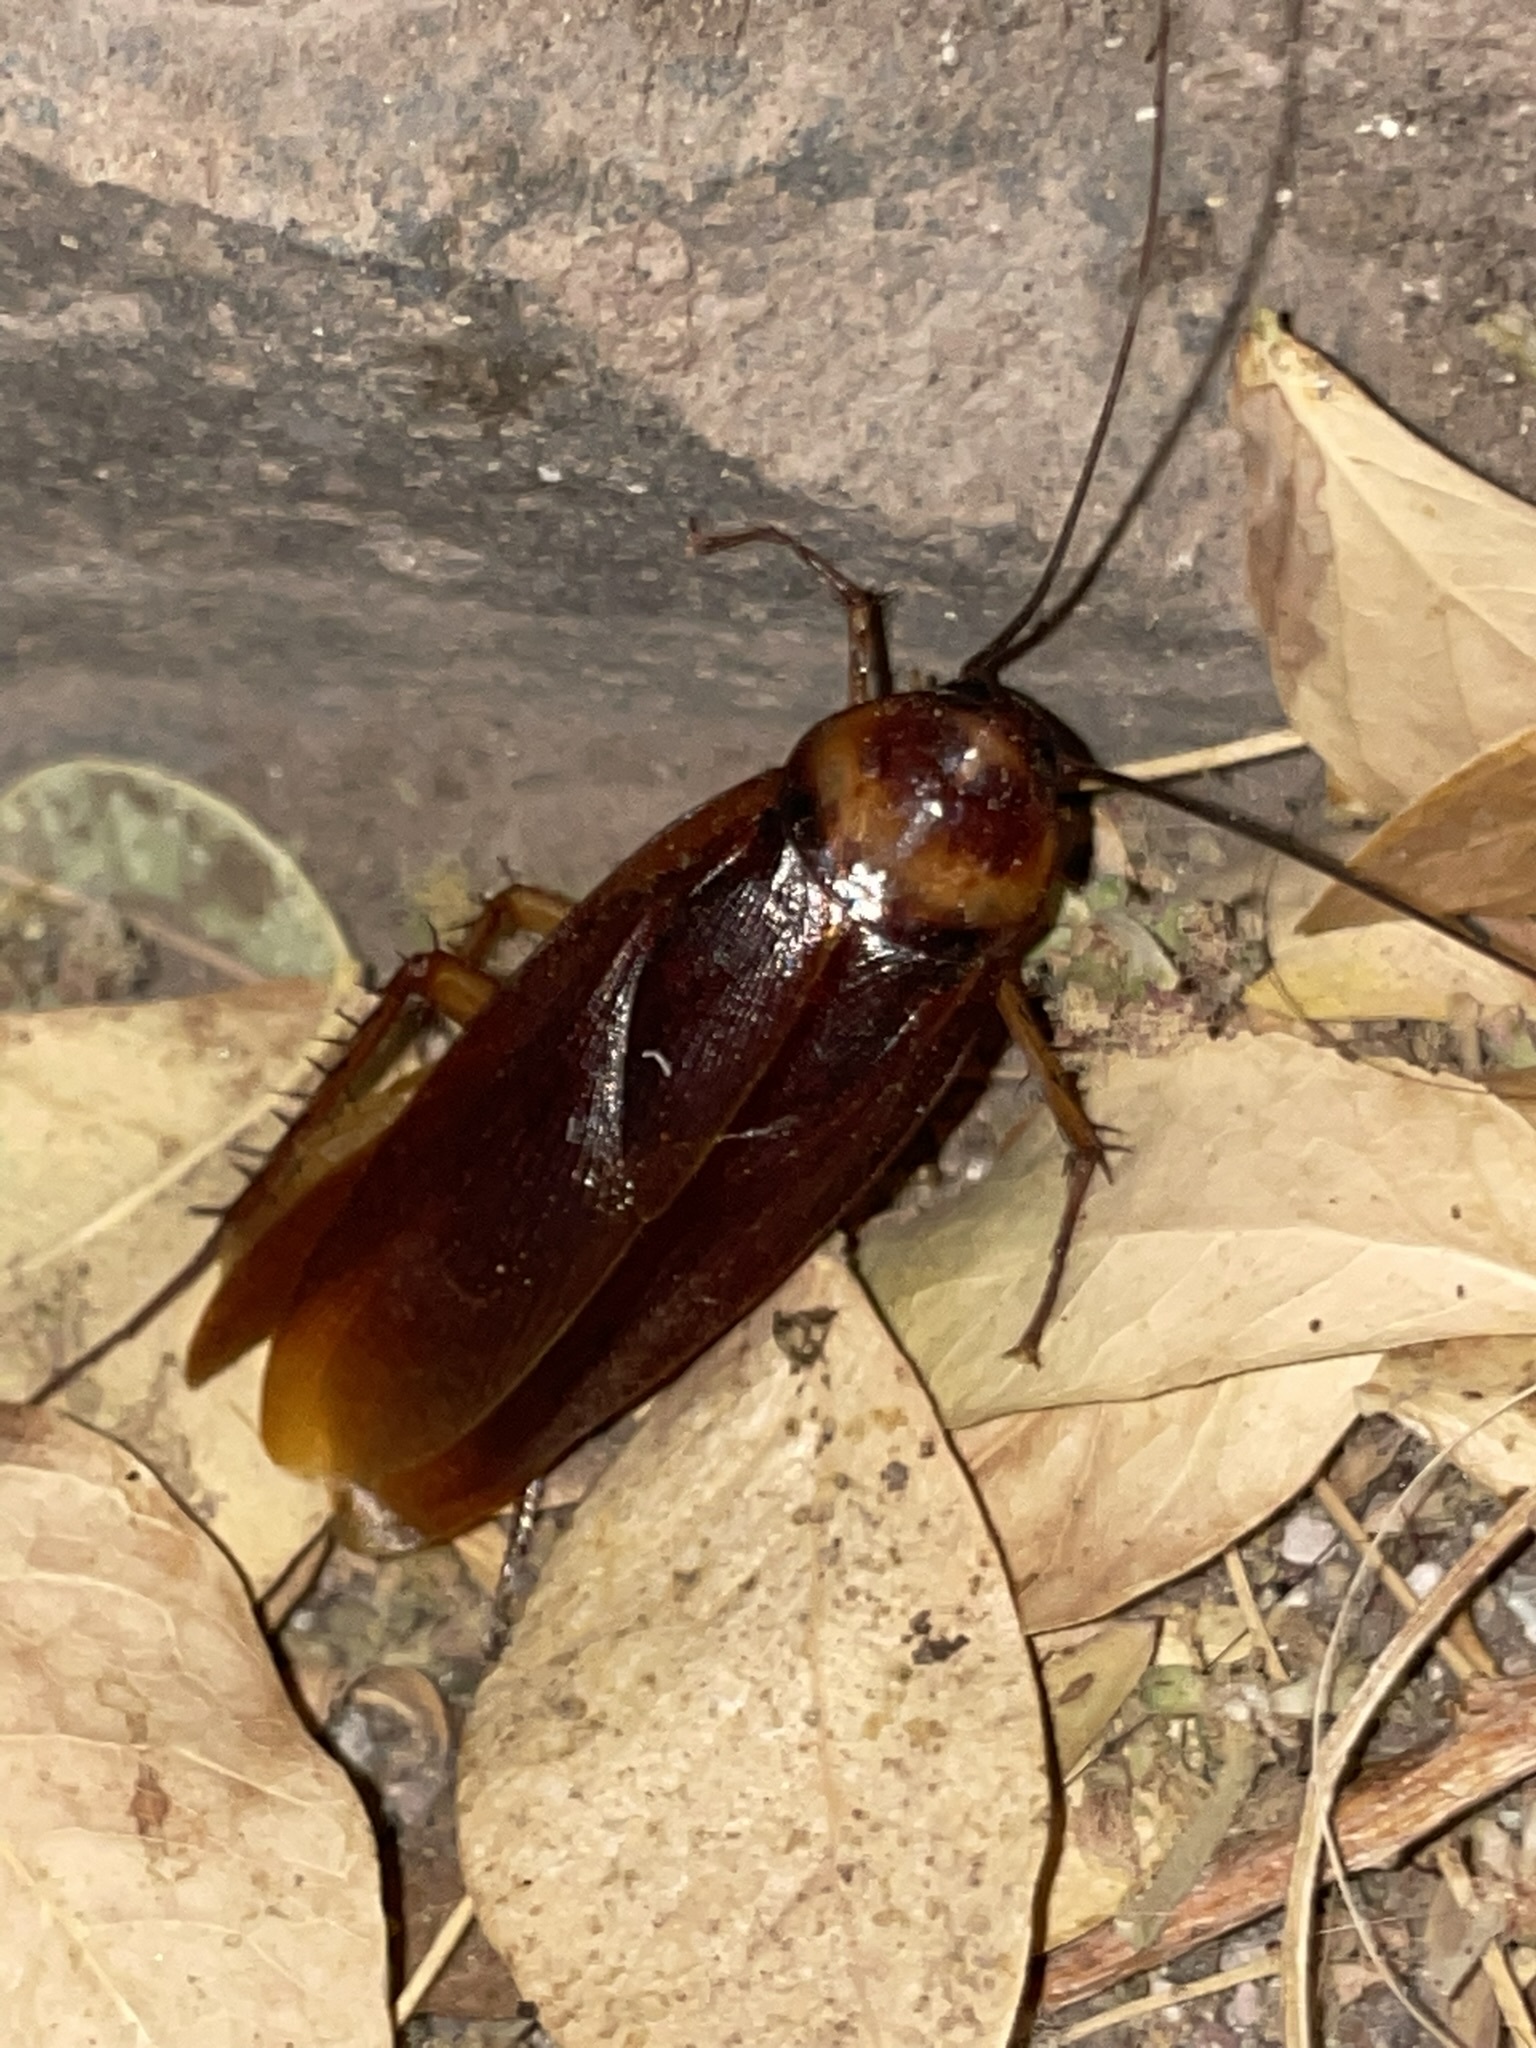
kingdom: Animalia
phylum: Arthropoda
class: Insecta
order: Blattodea
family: Blattidae
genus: Periplaneta
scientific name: Periplaneta americana
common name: American cockroach
